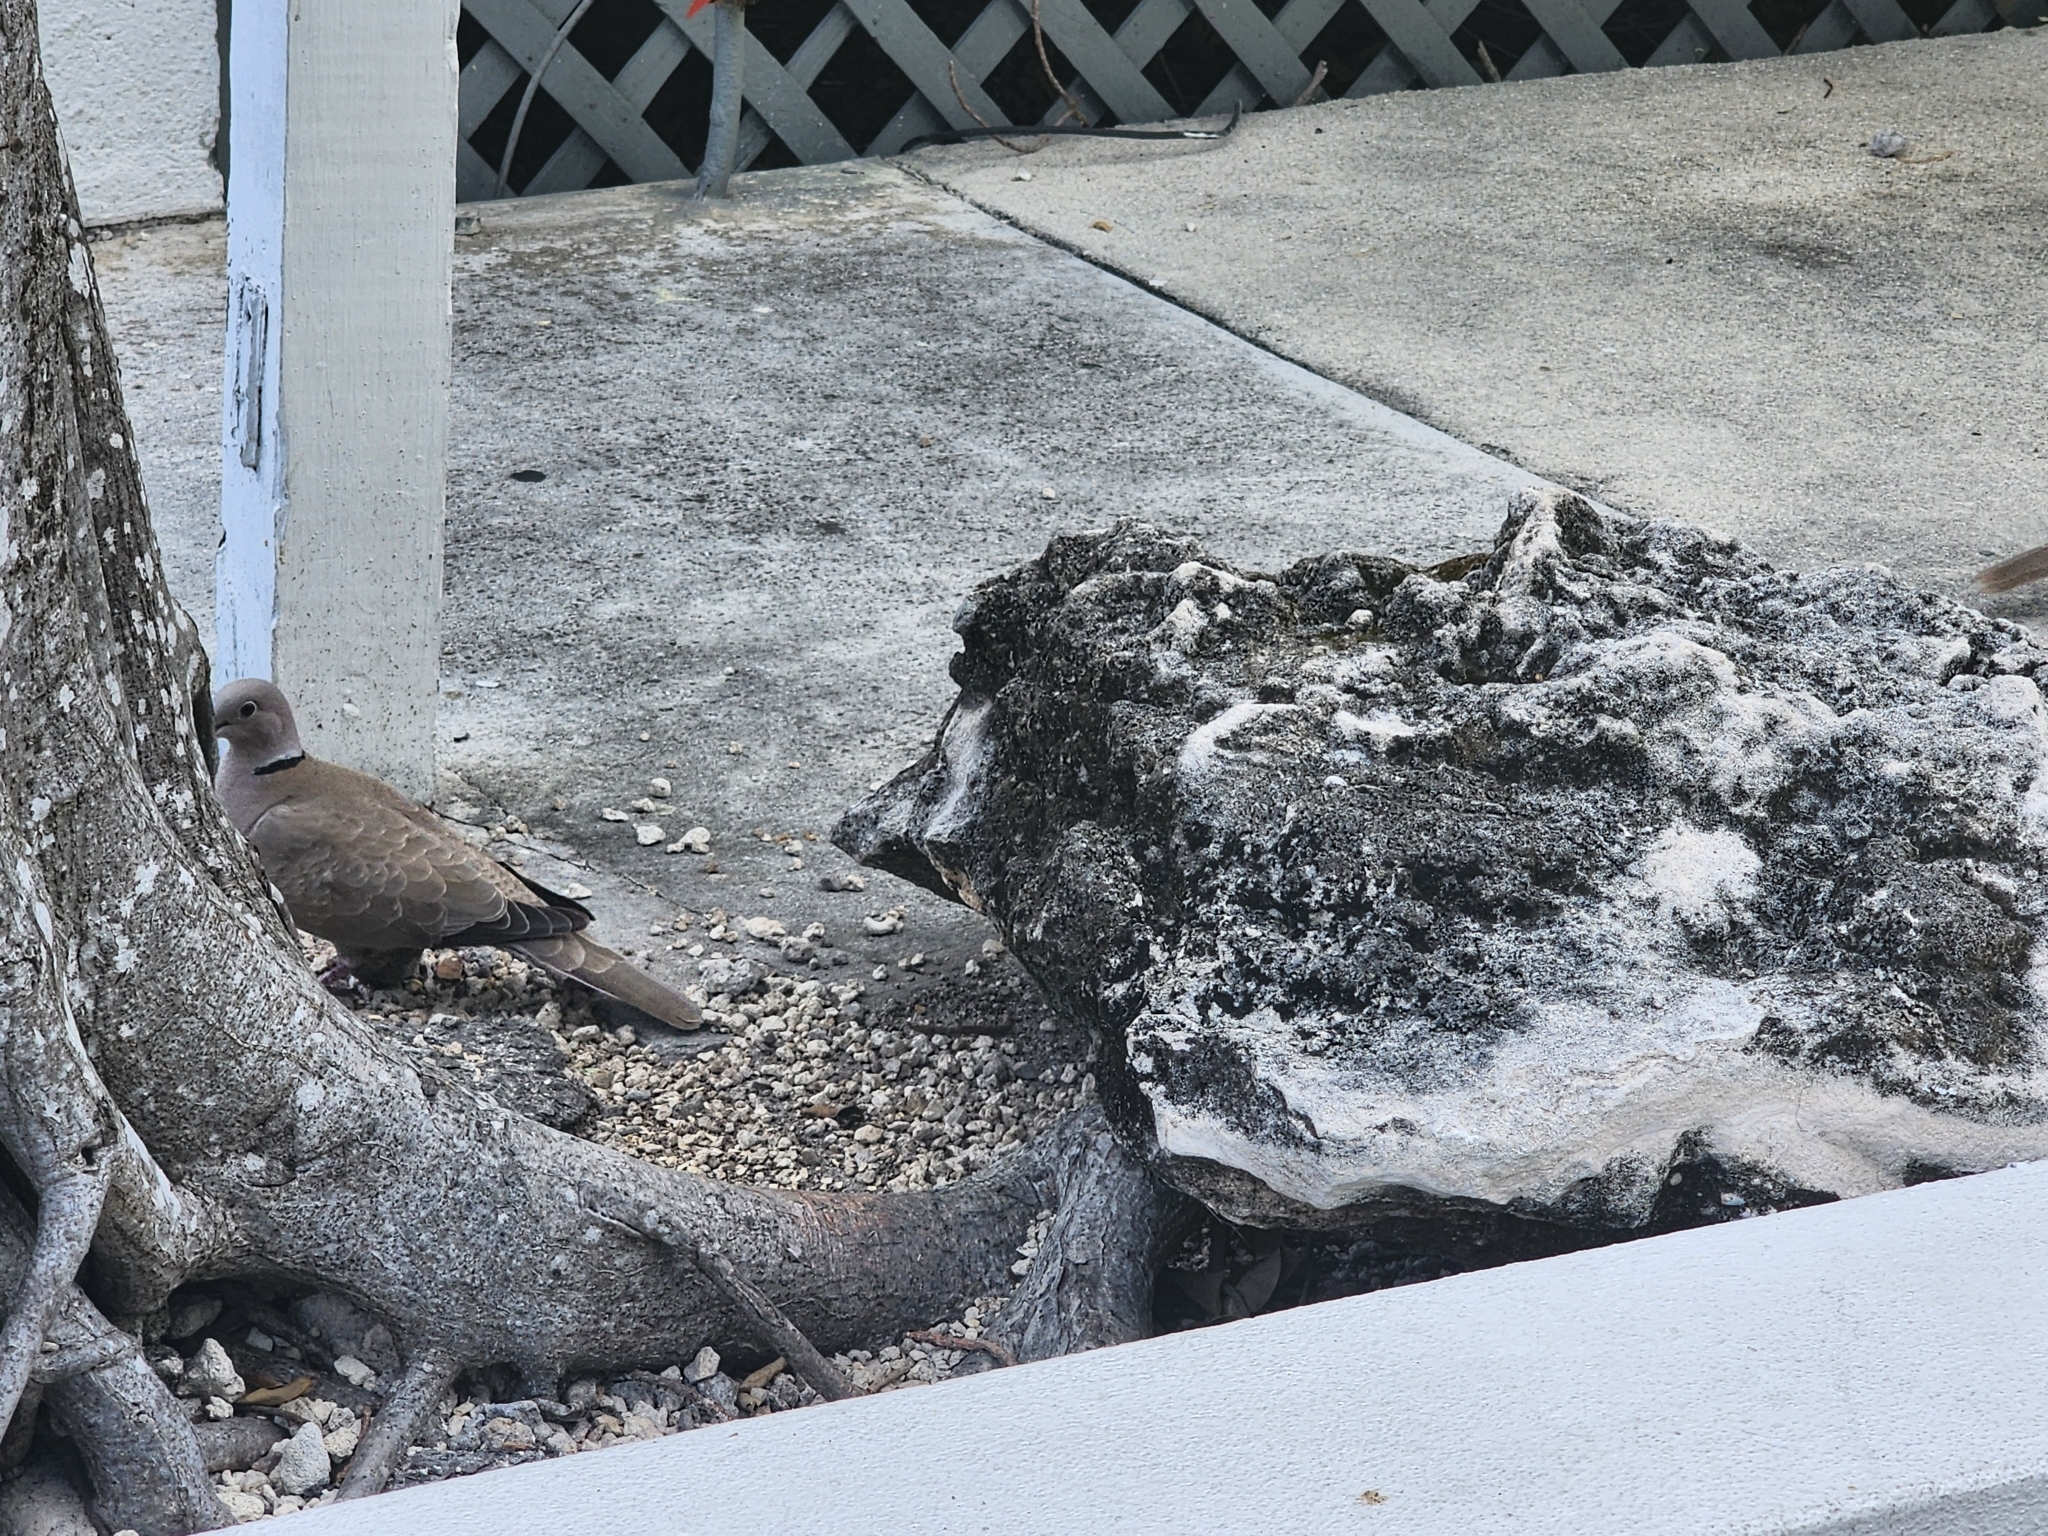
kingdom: Animalia
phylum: Chordata
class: Aves
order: Columbiformes
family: Columbidae
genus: Streptopelia
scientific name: Streptopelia decaocto
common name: Eurasian collared dove
